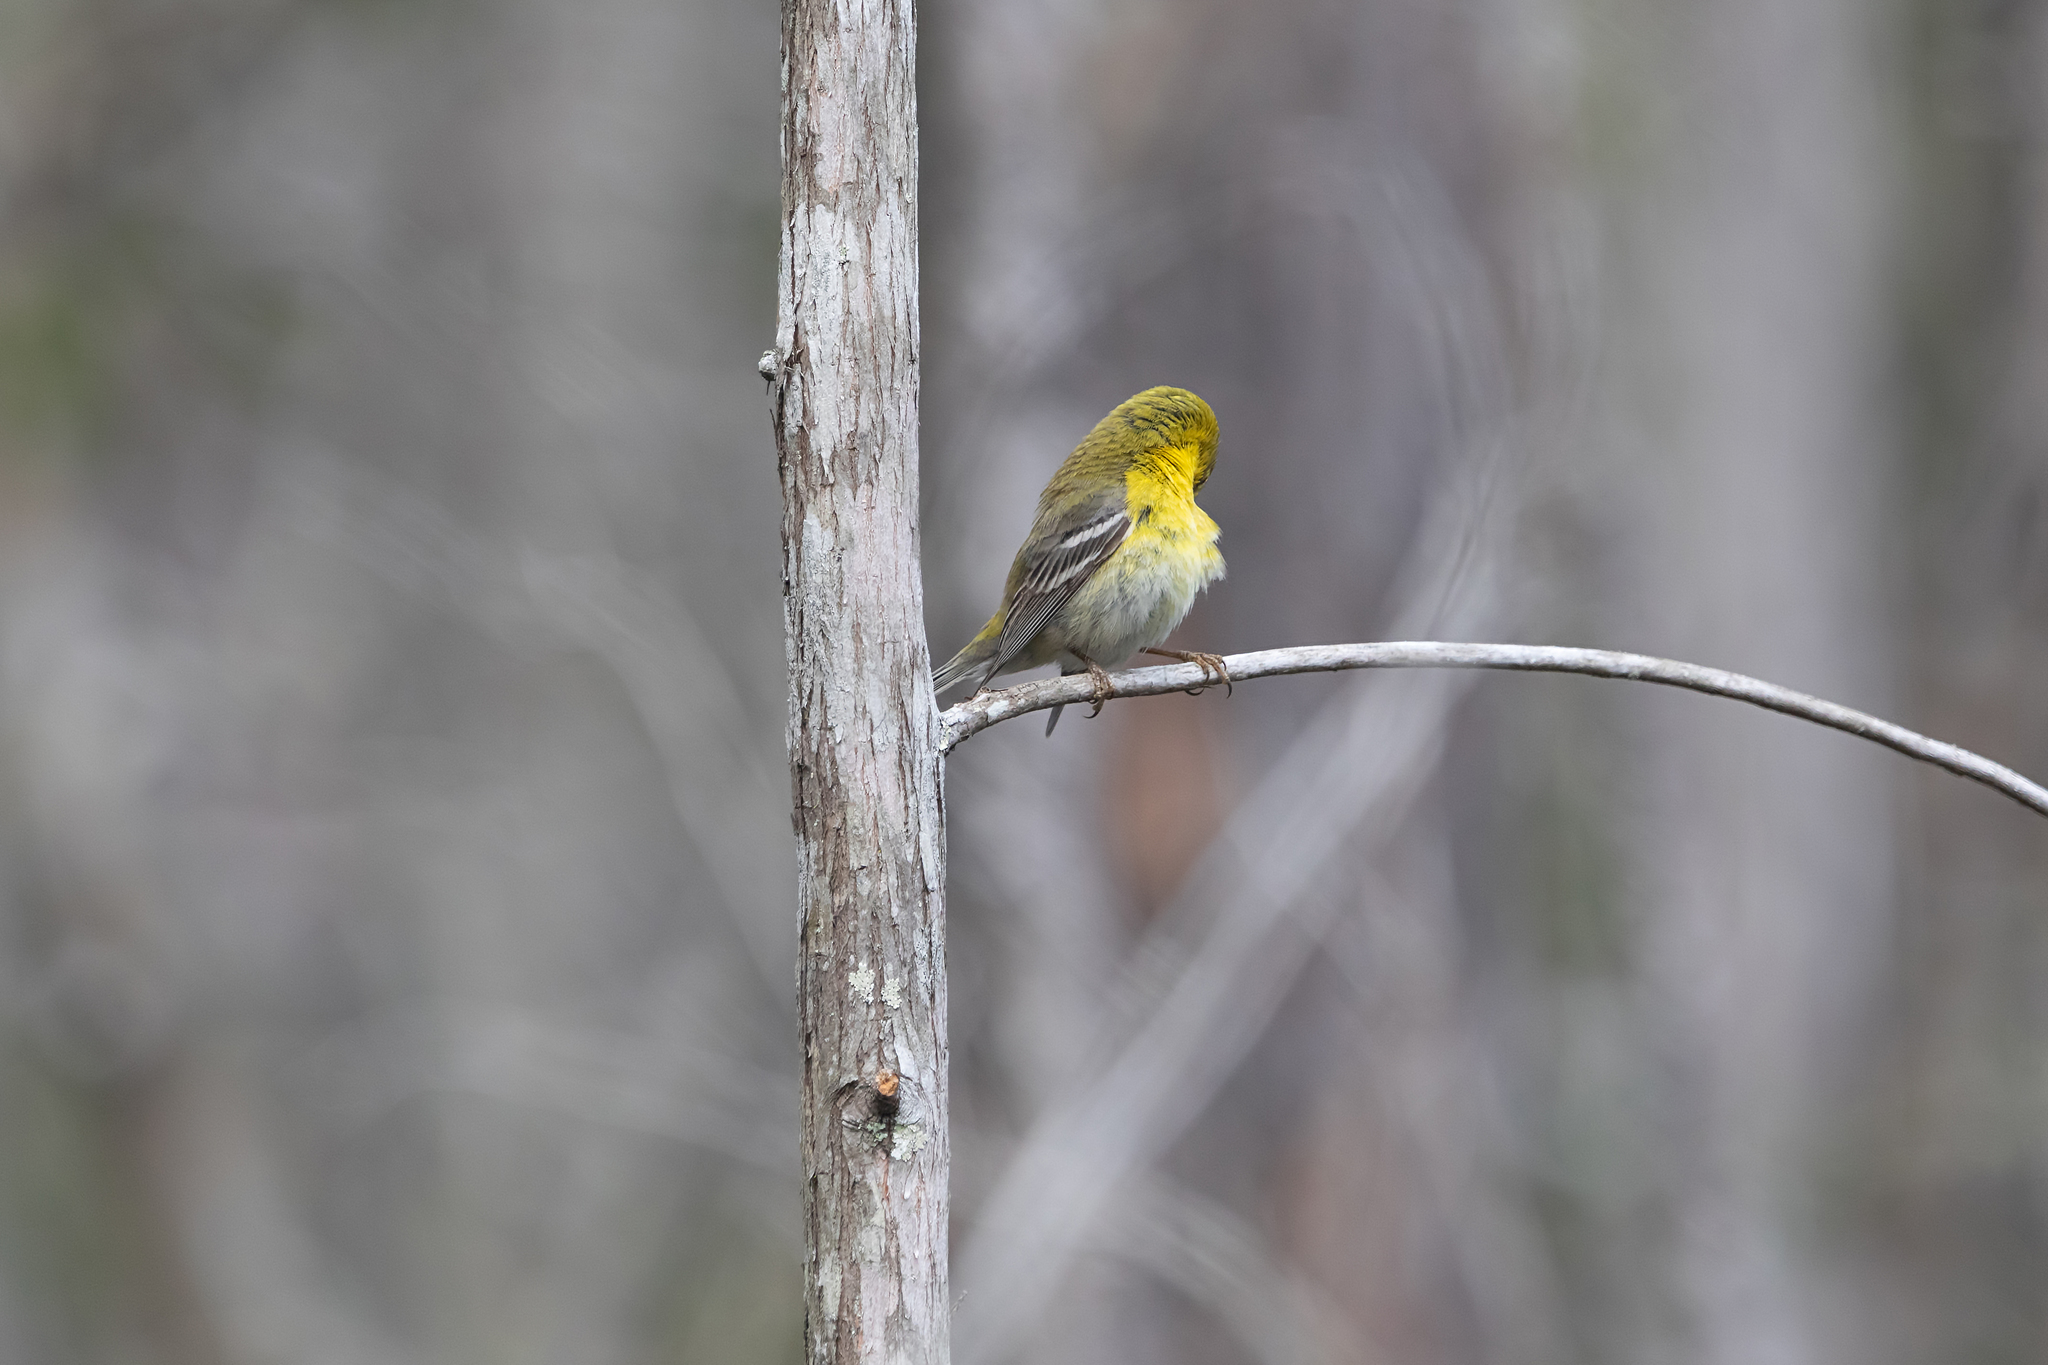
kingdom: Animalia
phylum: Chordata
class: Aves
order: Passeriformes
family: Parulidae
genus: Setophaga
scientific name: Setophaga pinus
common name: Pine warbler
